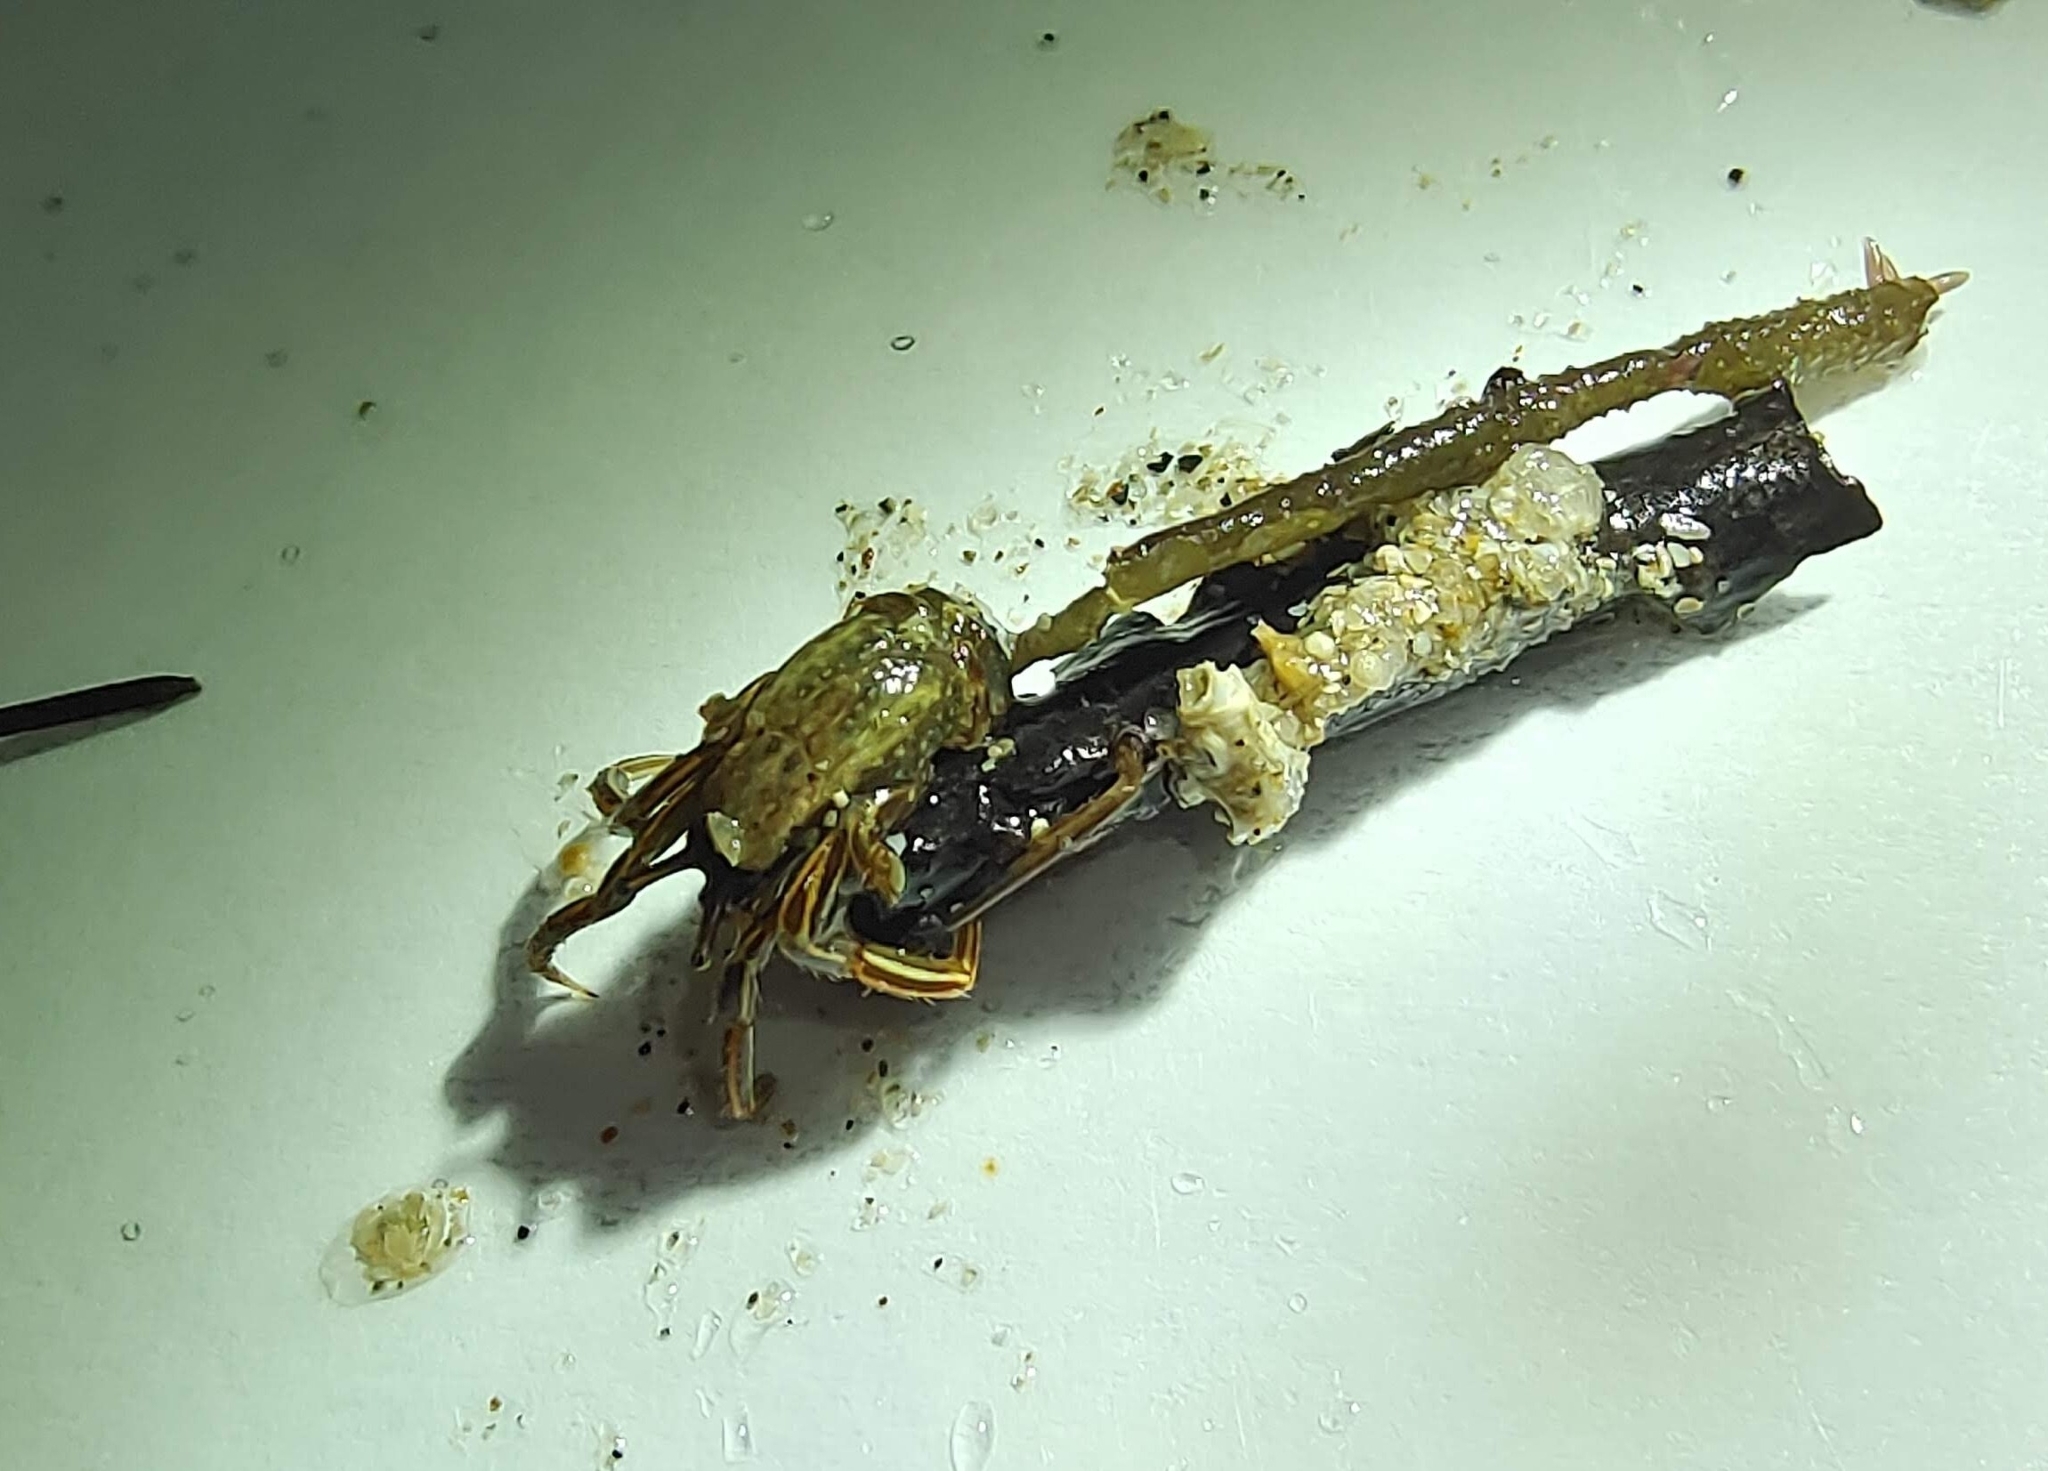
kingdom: Animalia
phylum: Arthropoda
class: Malacostraca
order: Decapoda
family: Diogenidae
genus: Clibanarius
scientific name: Clibanarius infraspinatus
